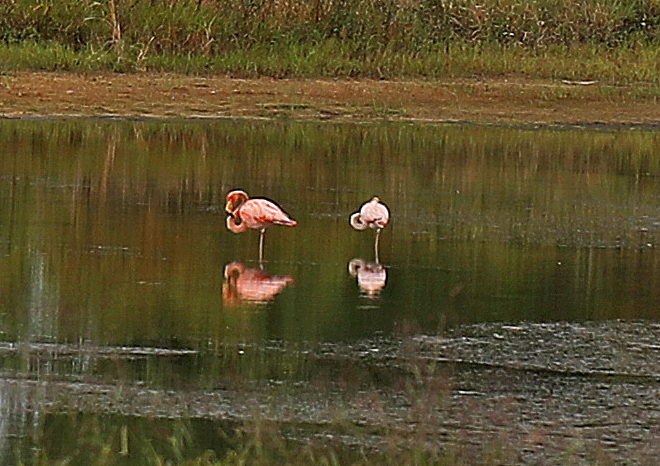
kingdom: Animalia
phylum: Chordata
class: Aves
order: Phoenicopteriformes
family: Phoenicopteridae
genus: Phoenicopterus
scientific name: Phoenicopterus ruber
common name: American flamingo
